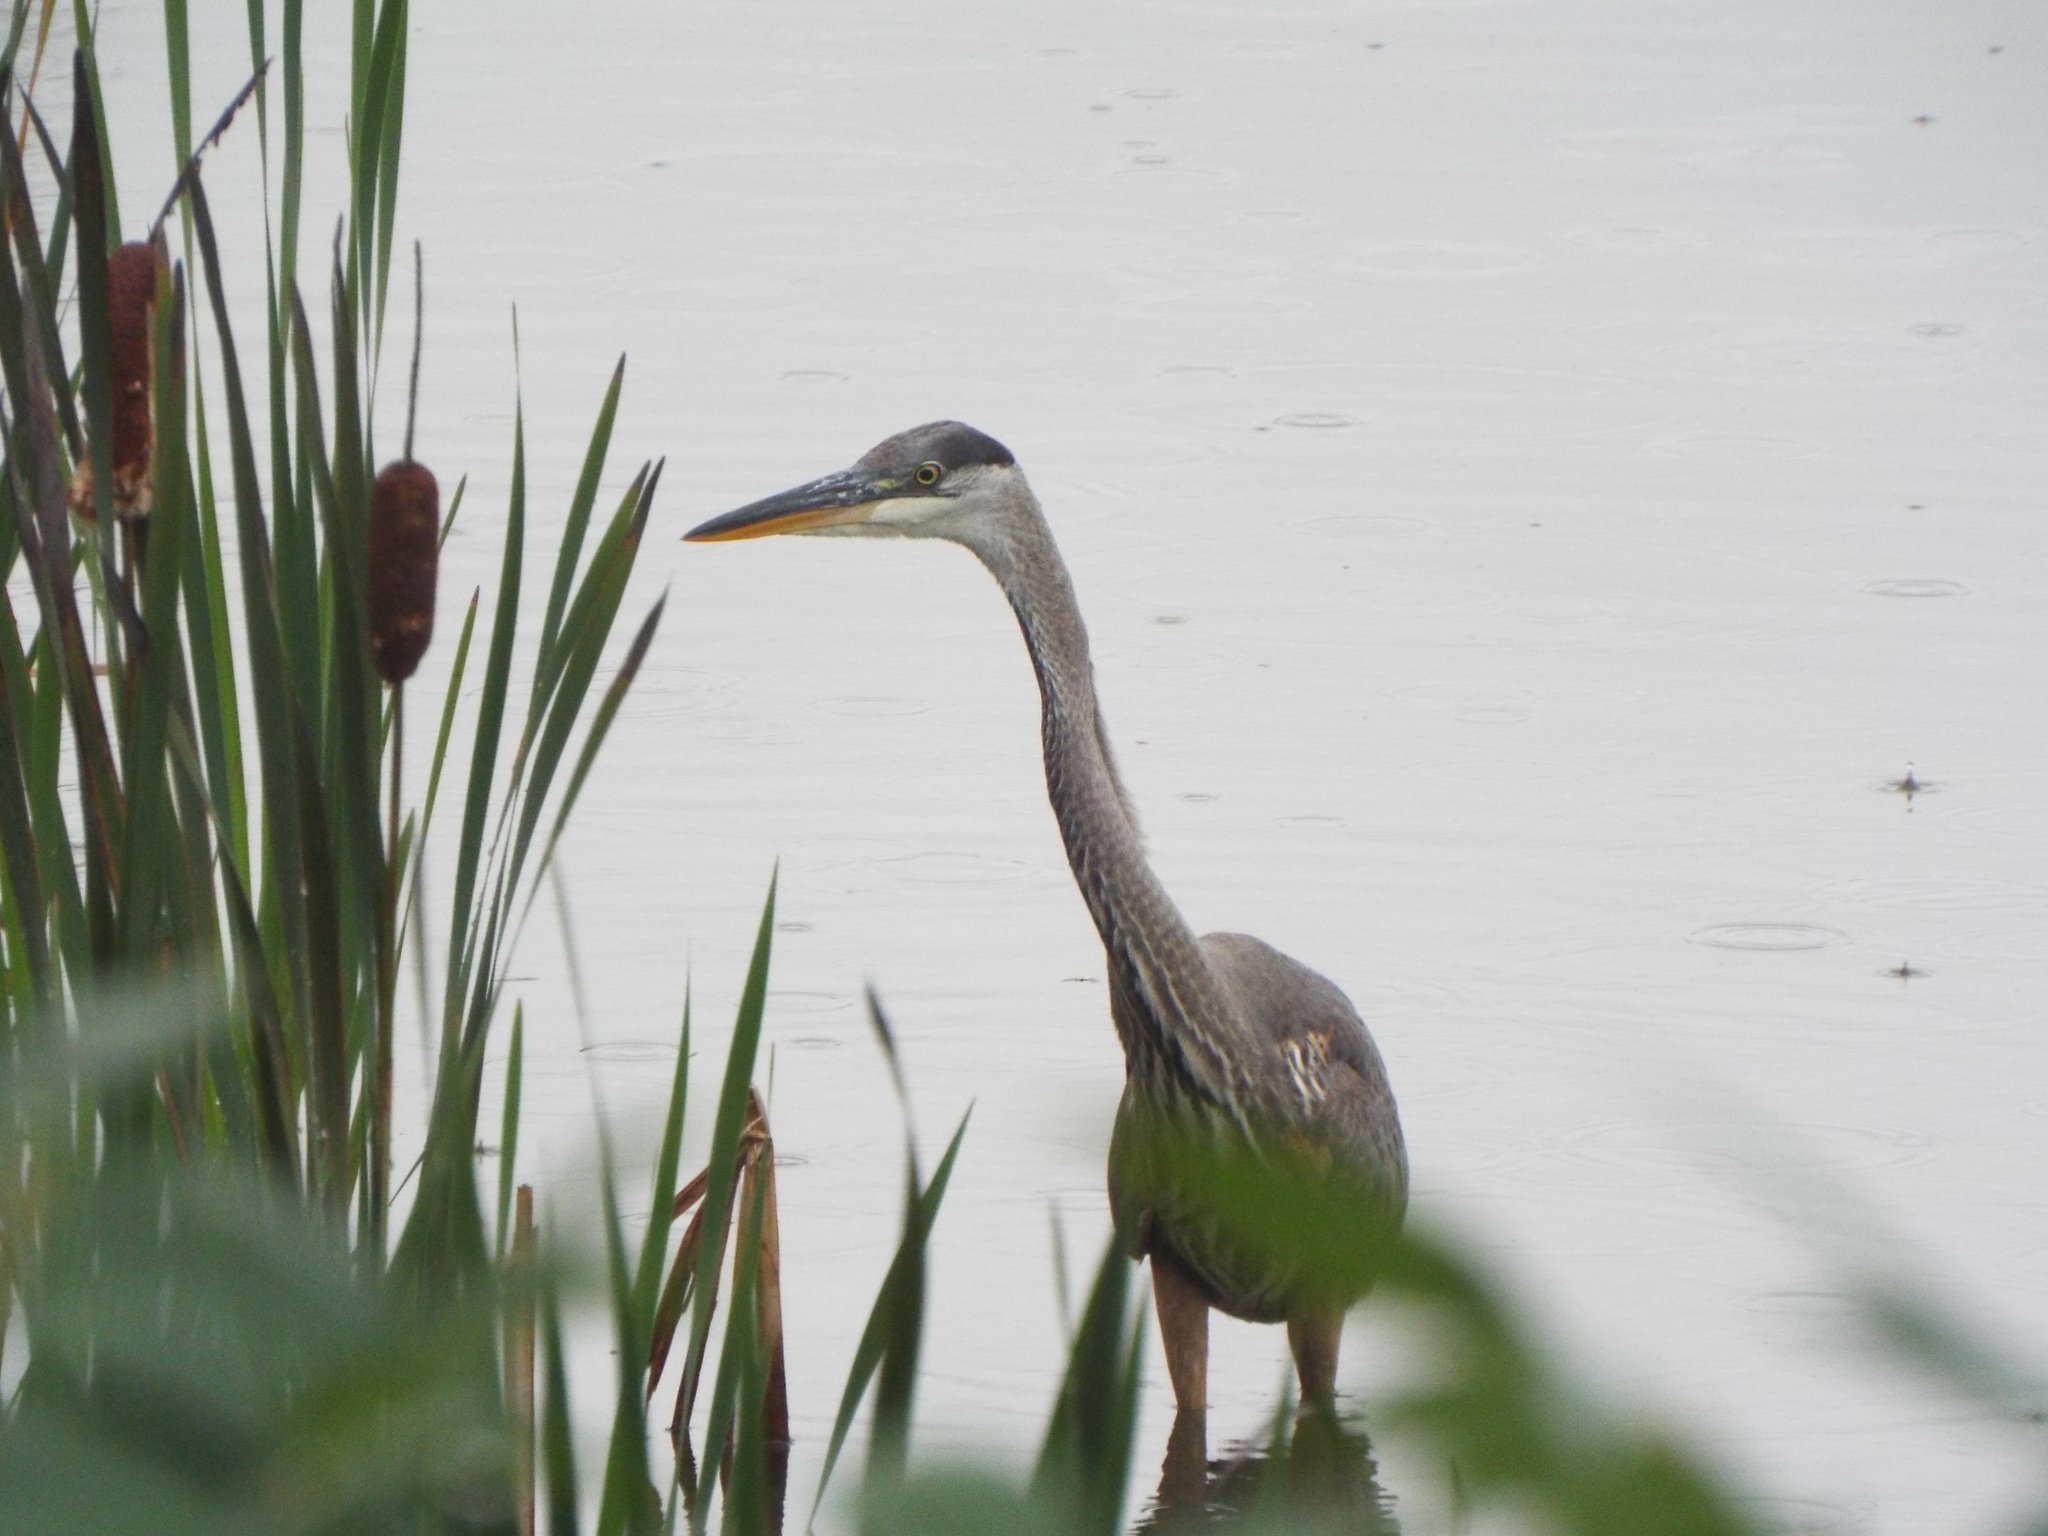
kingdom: Animalia
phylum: Chordata
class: Aves
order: Pelecaniformes
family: Ardeidae
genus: Ardea
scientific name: Ardea herodias
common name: Great blue heron
